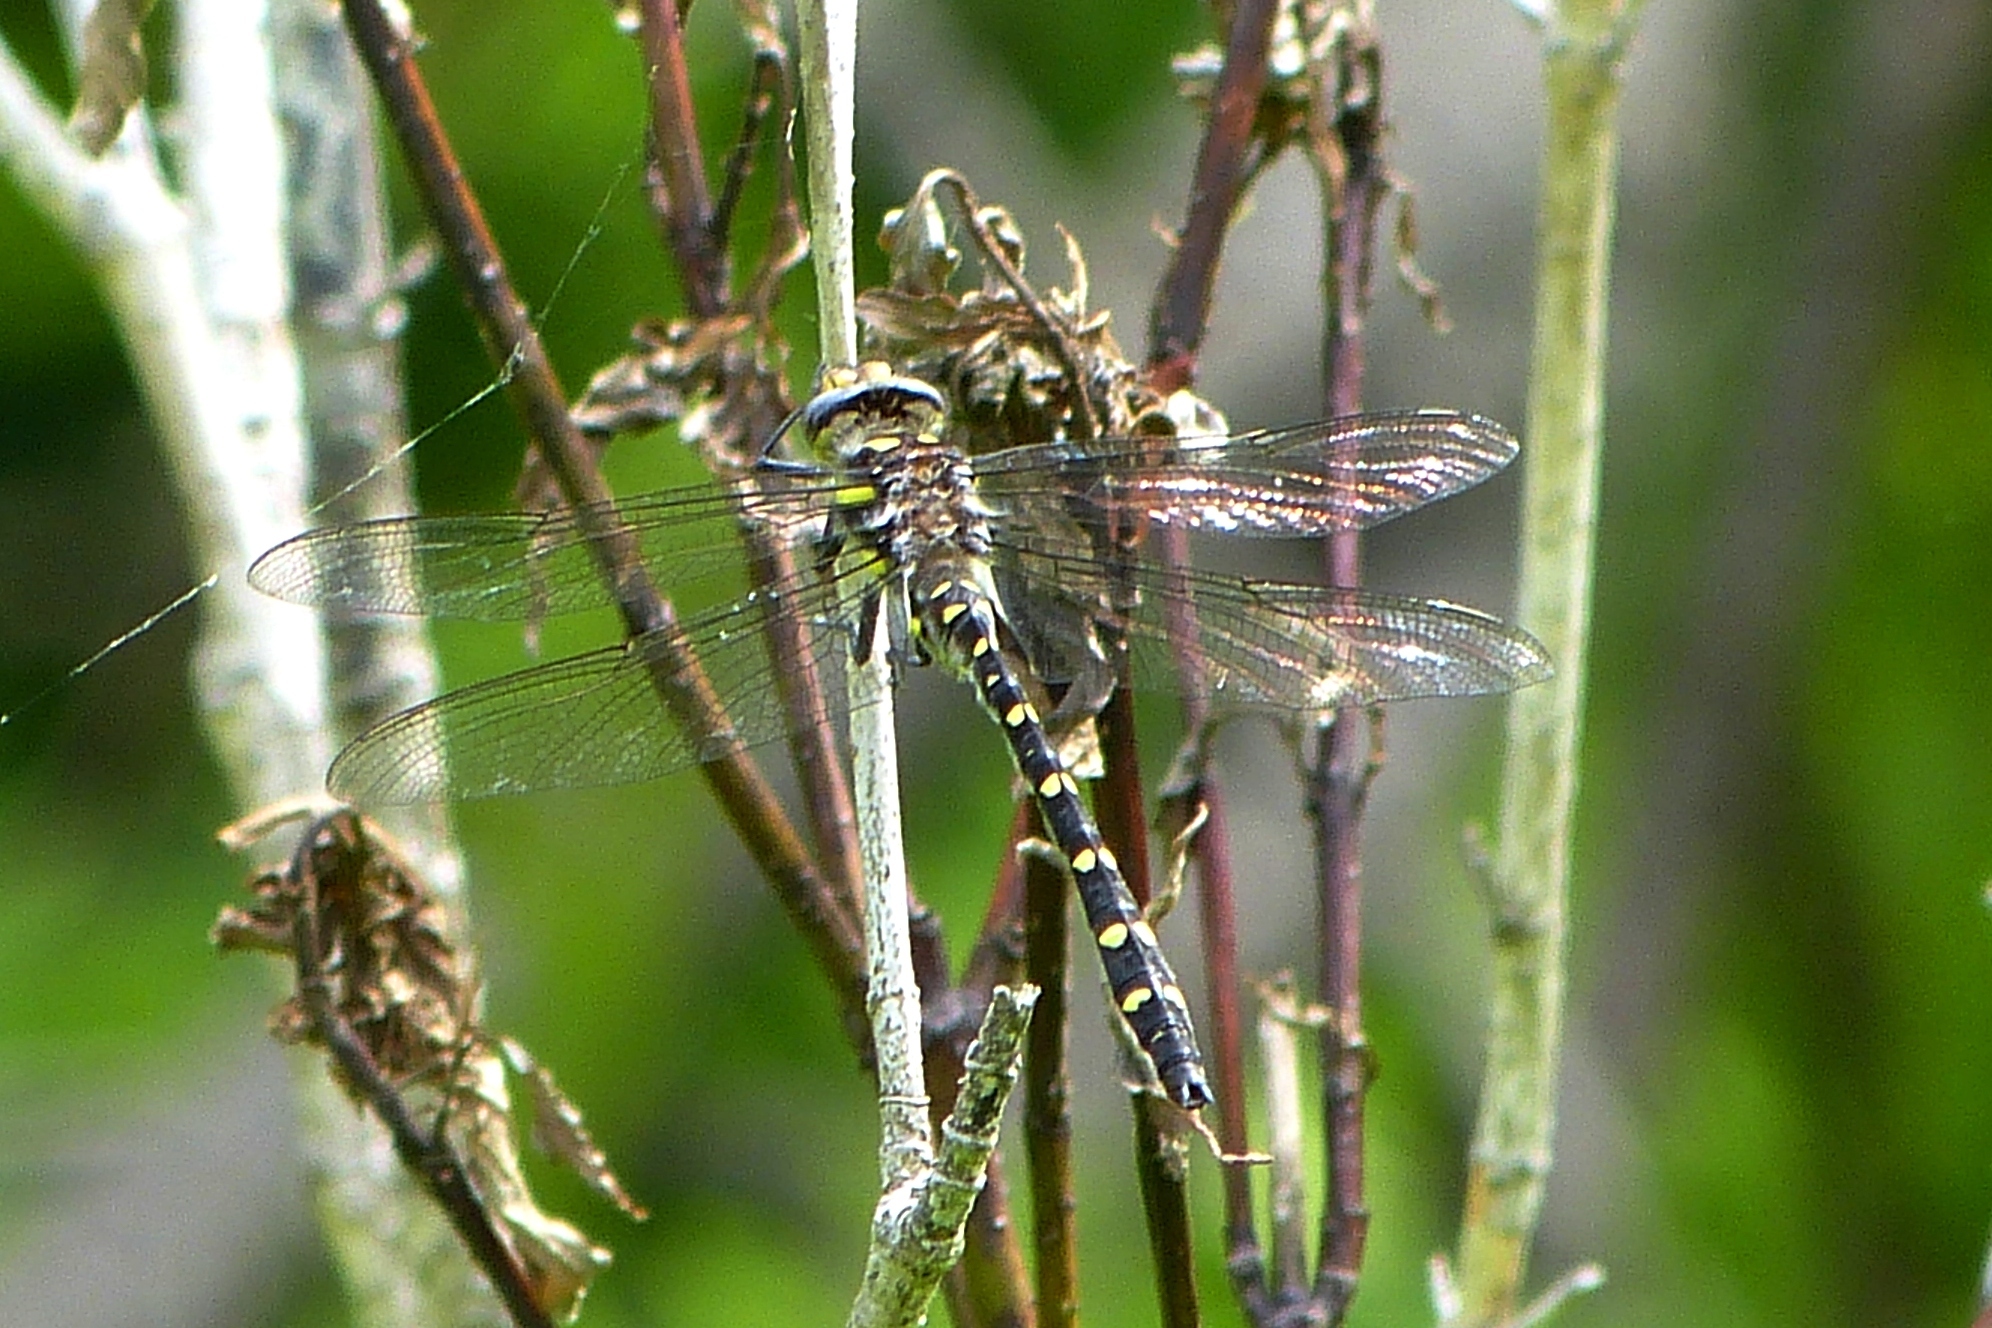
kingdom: Animalia
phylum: Arthropoda
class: Insecta
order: Odonata
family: Cordulegastridae
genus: Cordulegaster
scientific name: Cordulegaster maculata
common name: Twin-spotted spiketail
